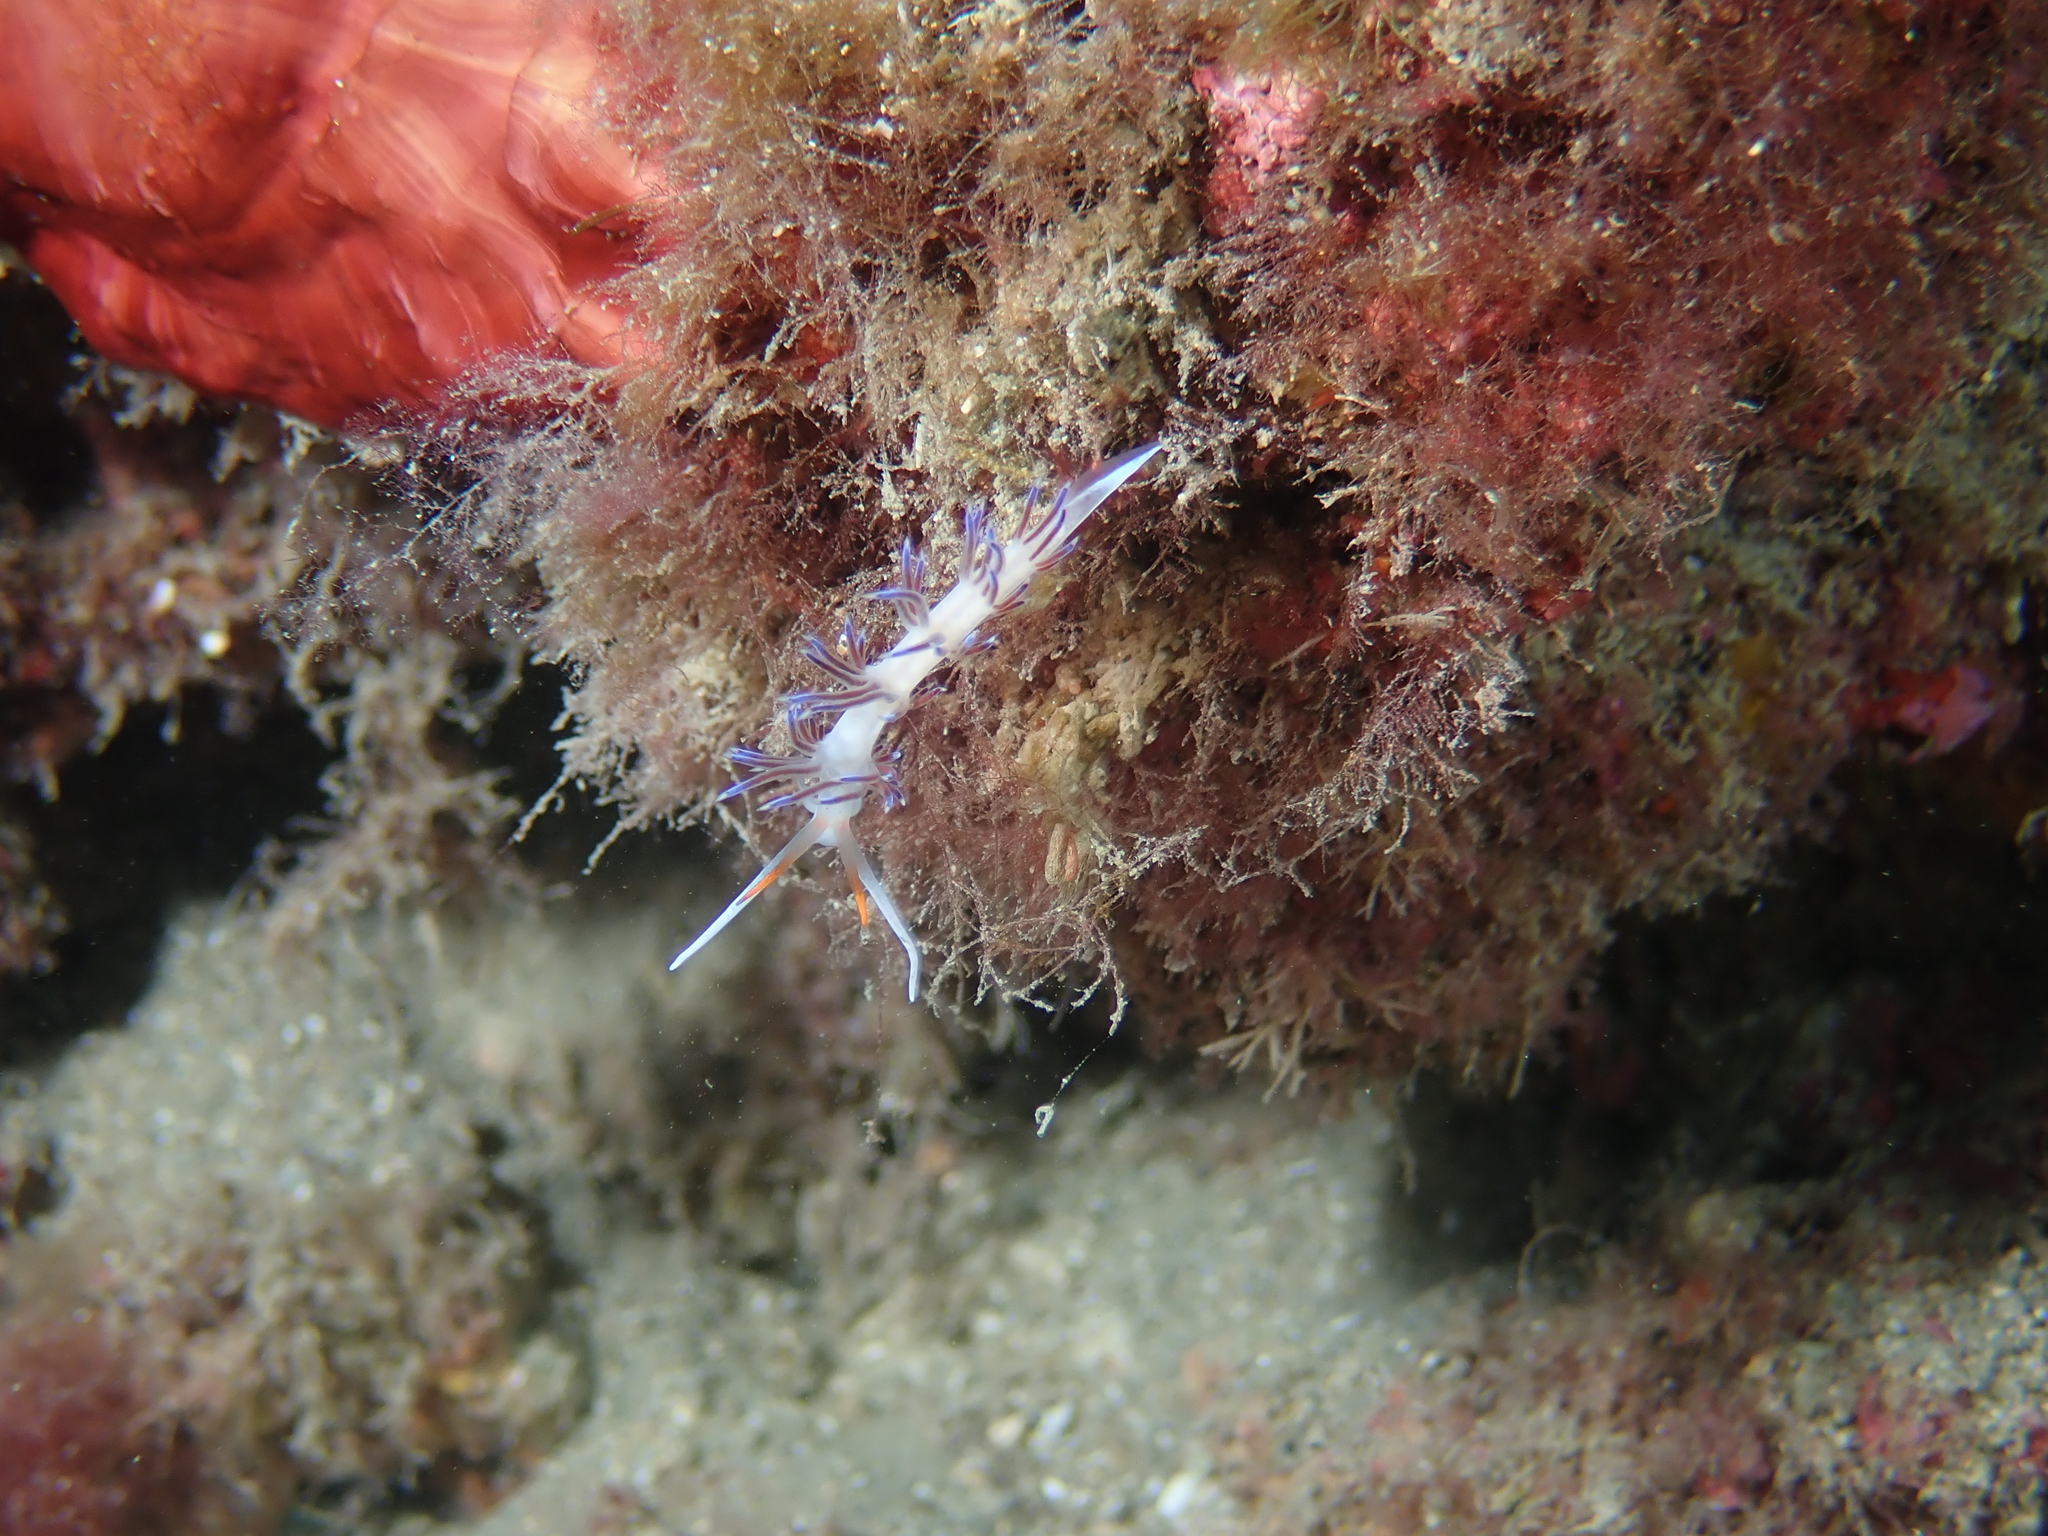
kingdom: Animalia
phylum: Mollusca
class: Gastropoda
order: Nudibranchia
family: Facelinidae
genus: Cratena
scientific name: Cratena peregrina
